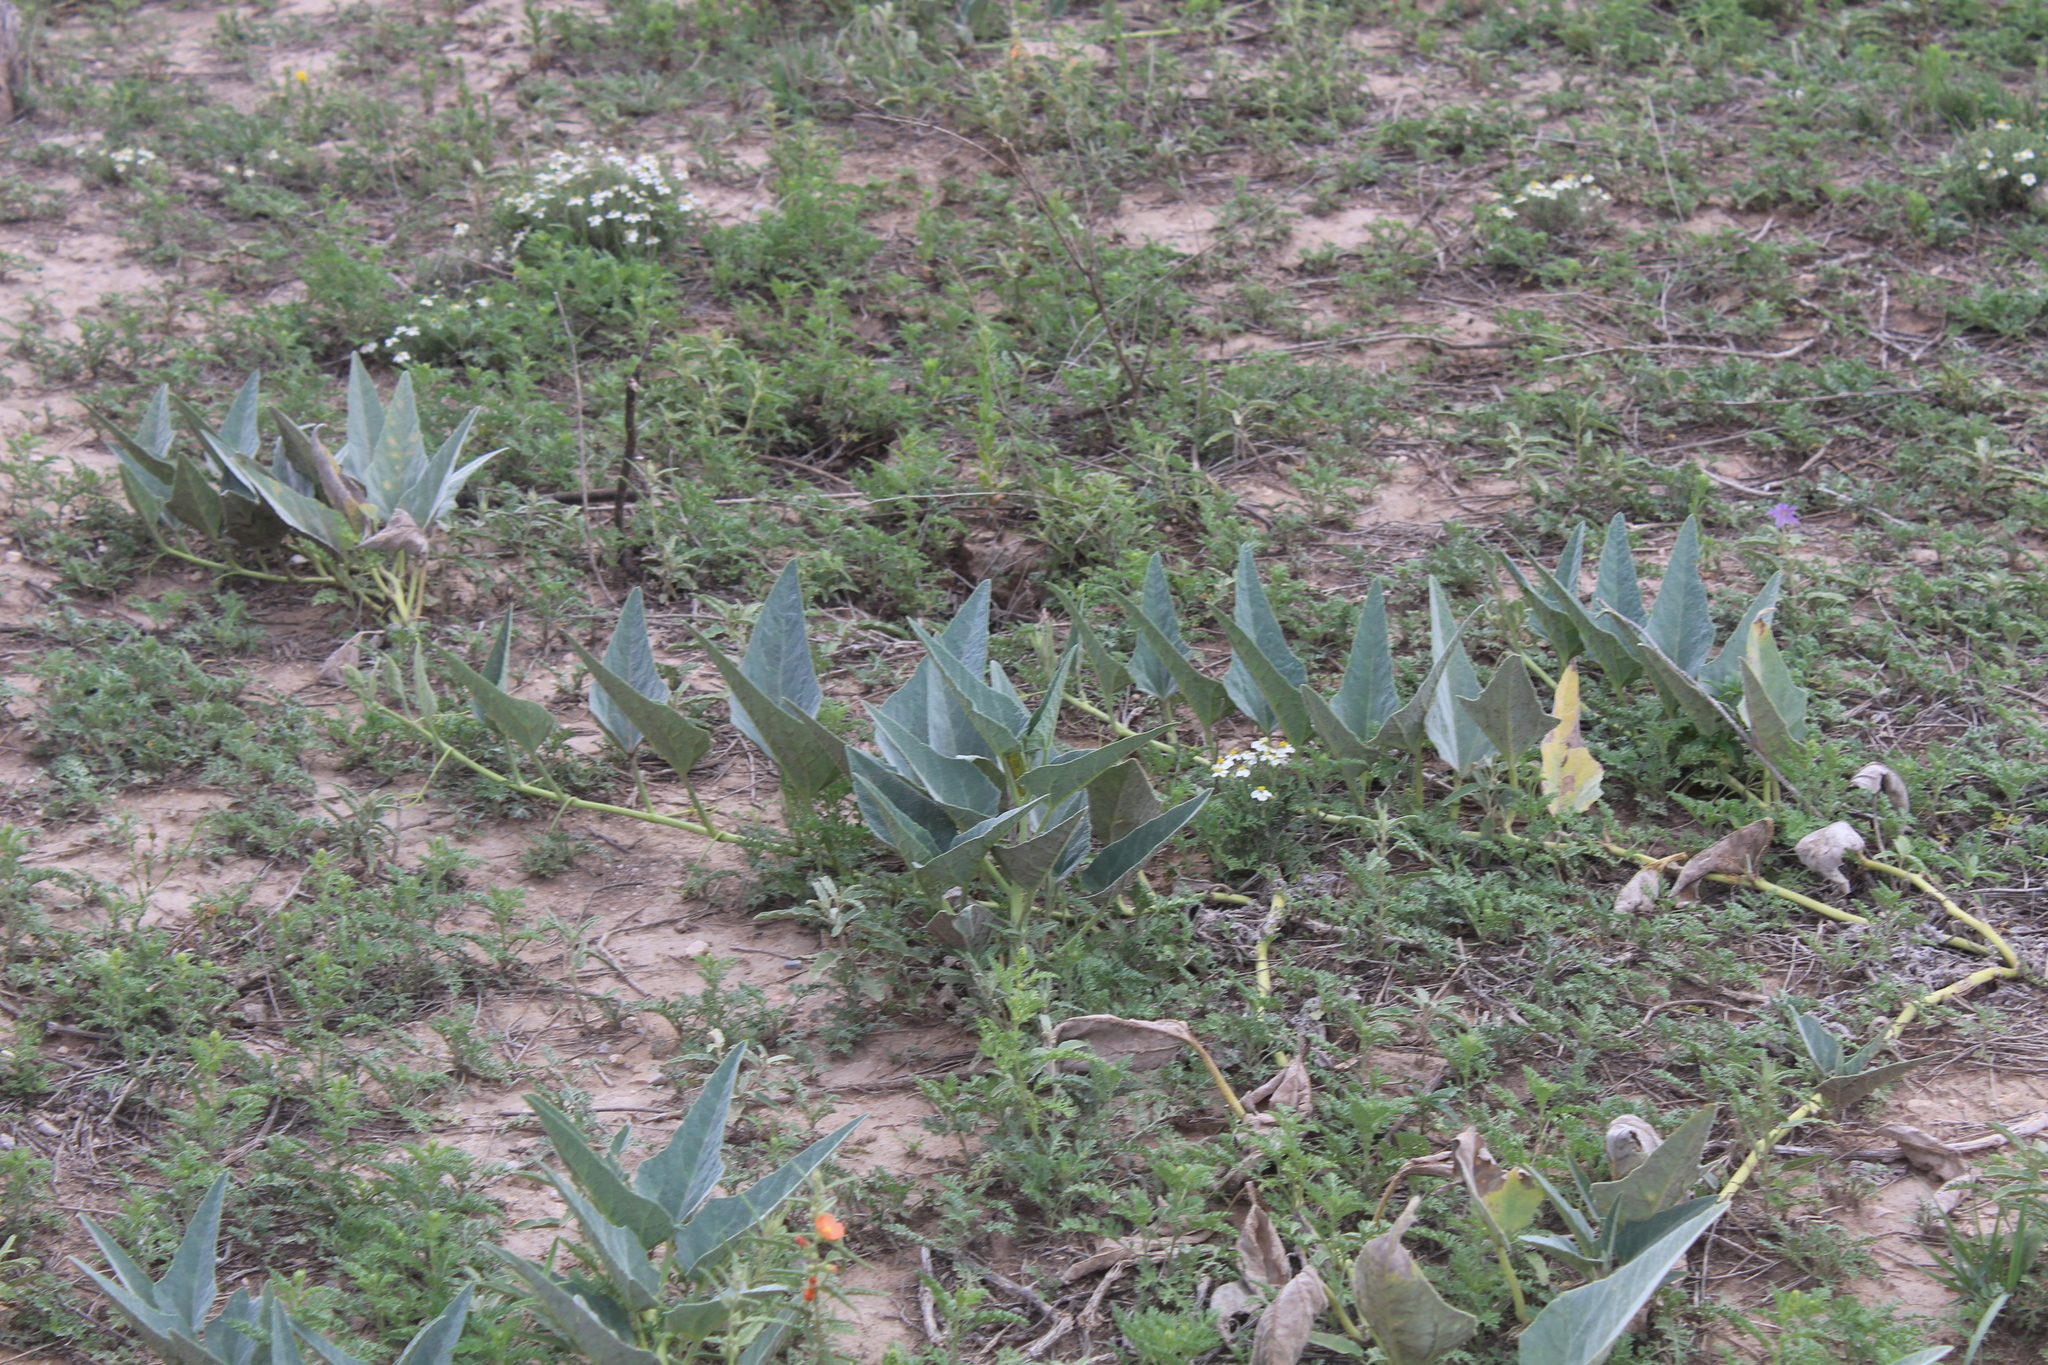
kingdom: Plantae
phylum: Tracheophyta
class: Magnoliopsida
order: Cucurbitales
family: Cucurbitaceae
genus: Cucurbita
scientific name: Cucurbita foetidissima
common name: Buffalo gourd
